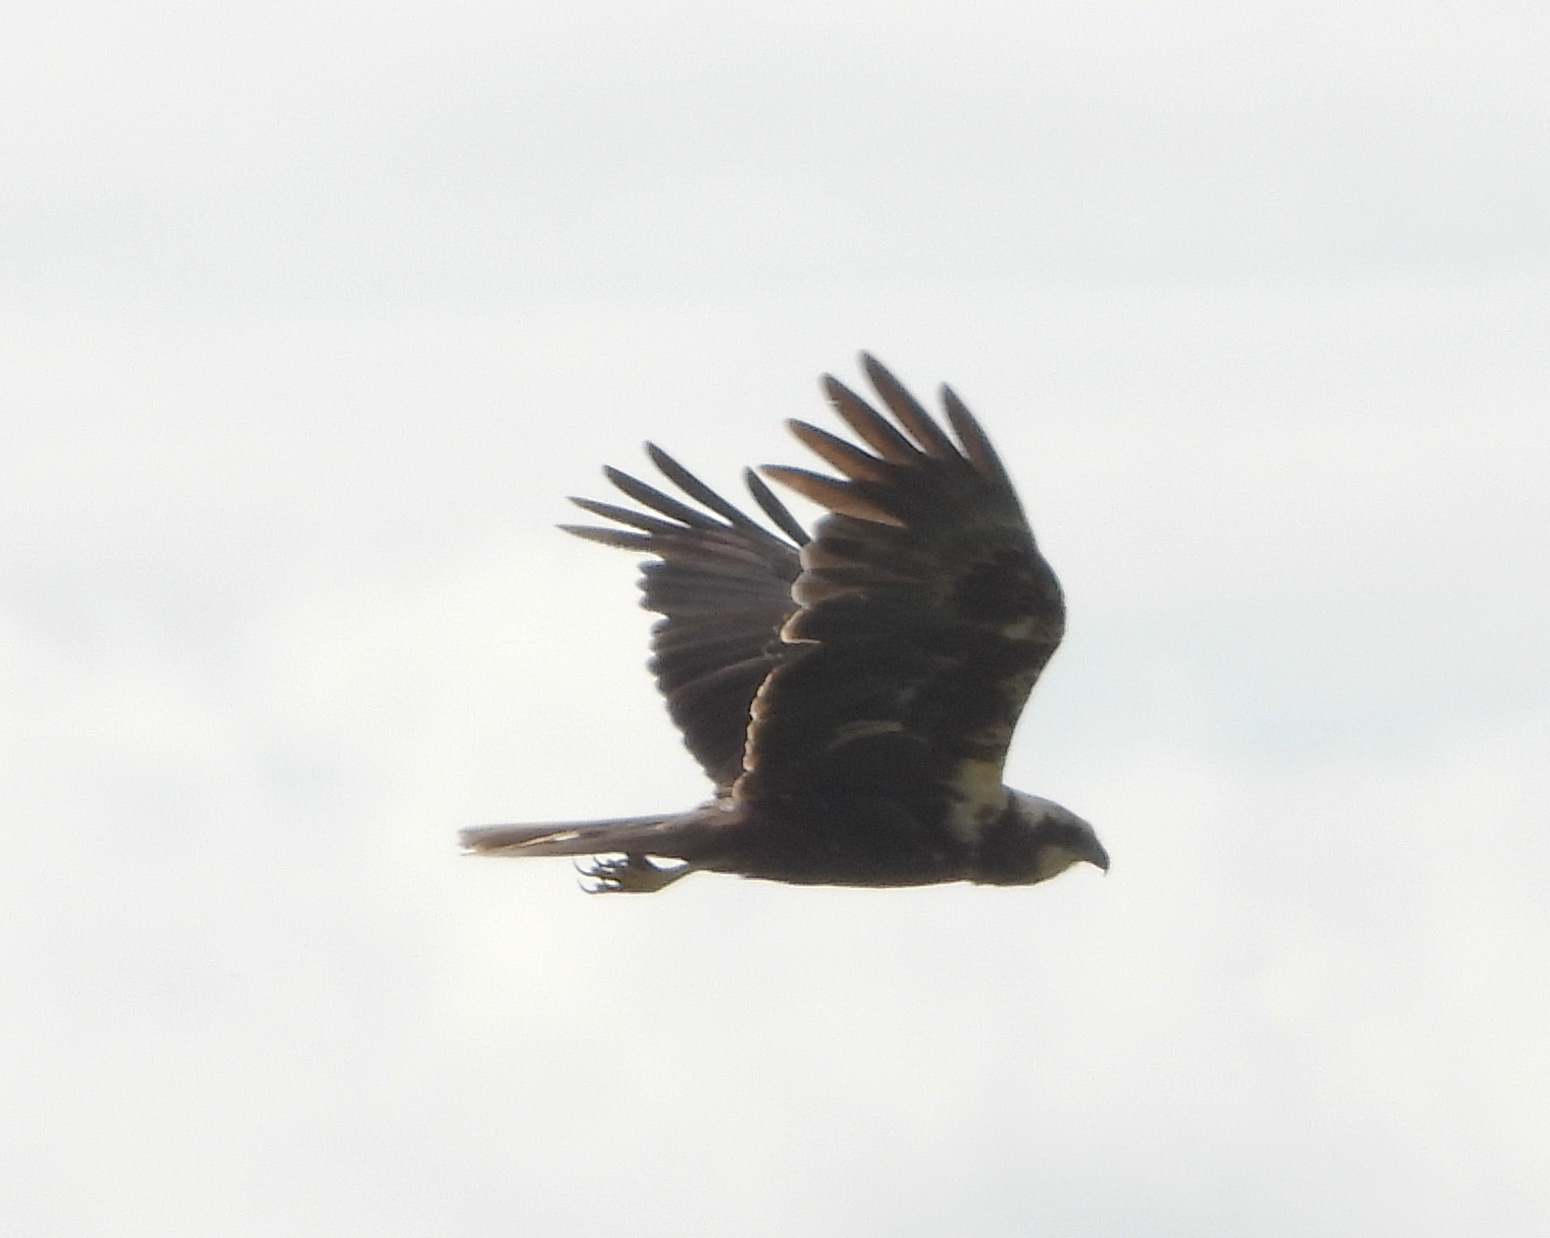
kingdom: Animalia
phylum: Chordata
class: Aves
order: Accipitriformes
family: Accipitridae
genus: Circus
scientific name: Circus aeruginosus
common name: Western marsh harrier
